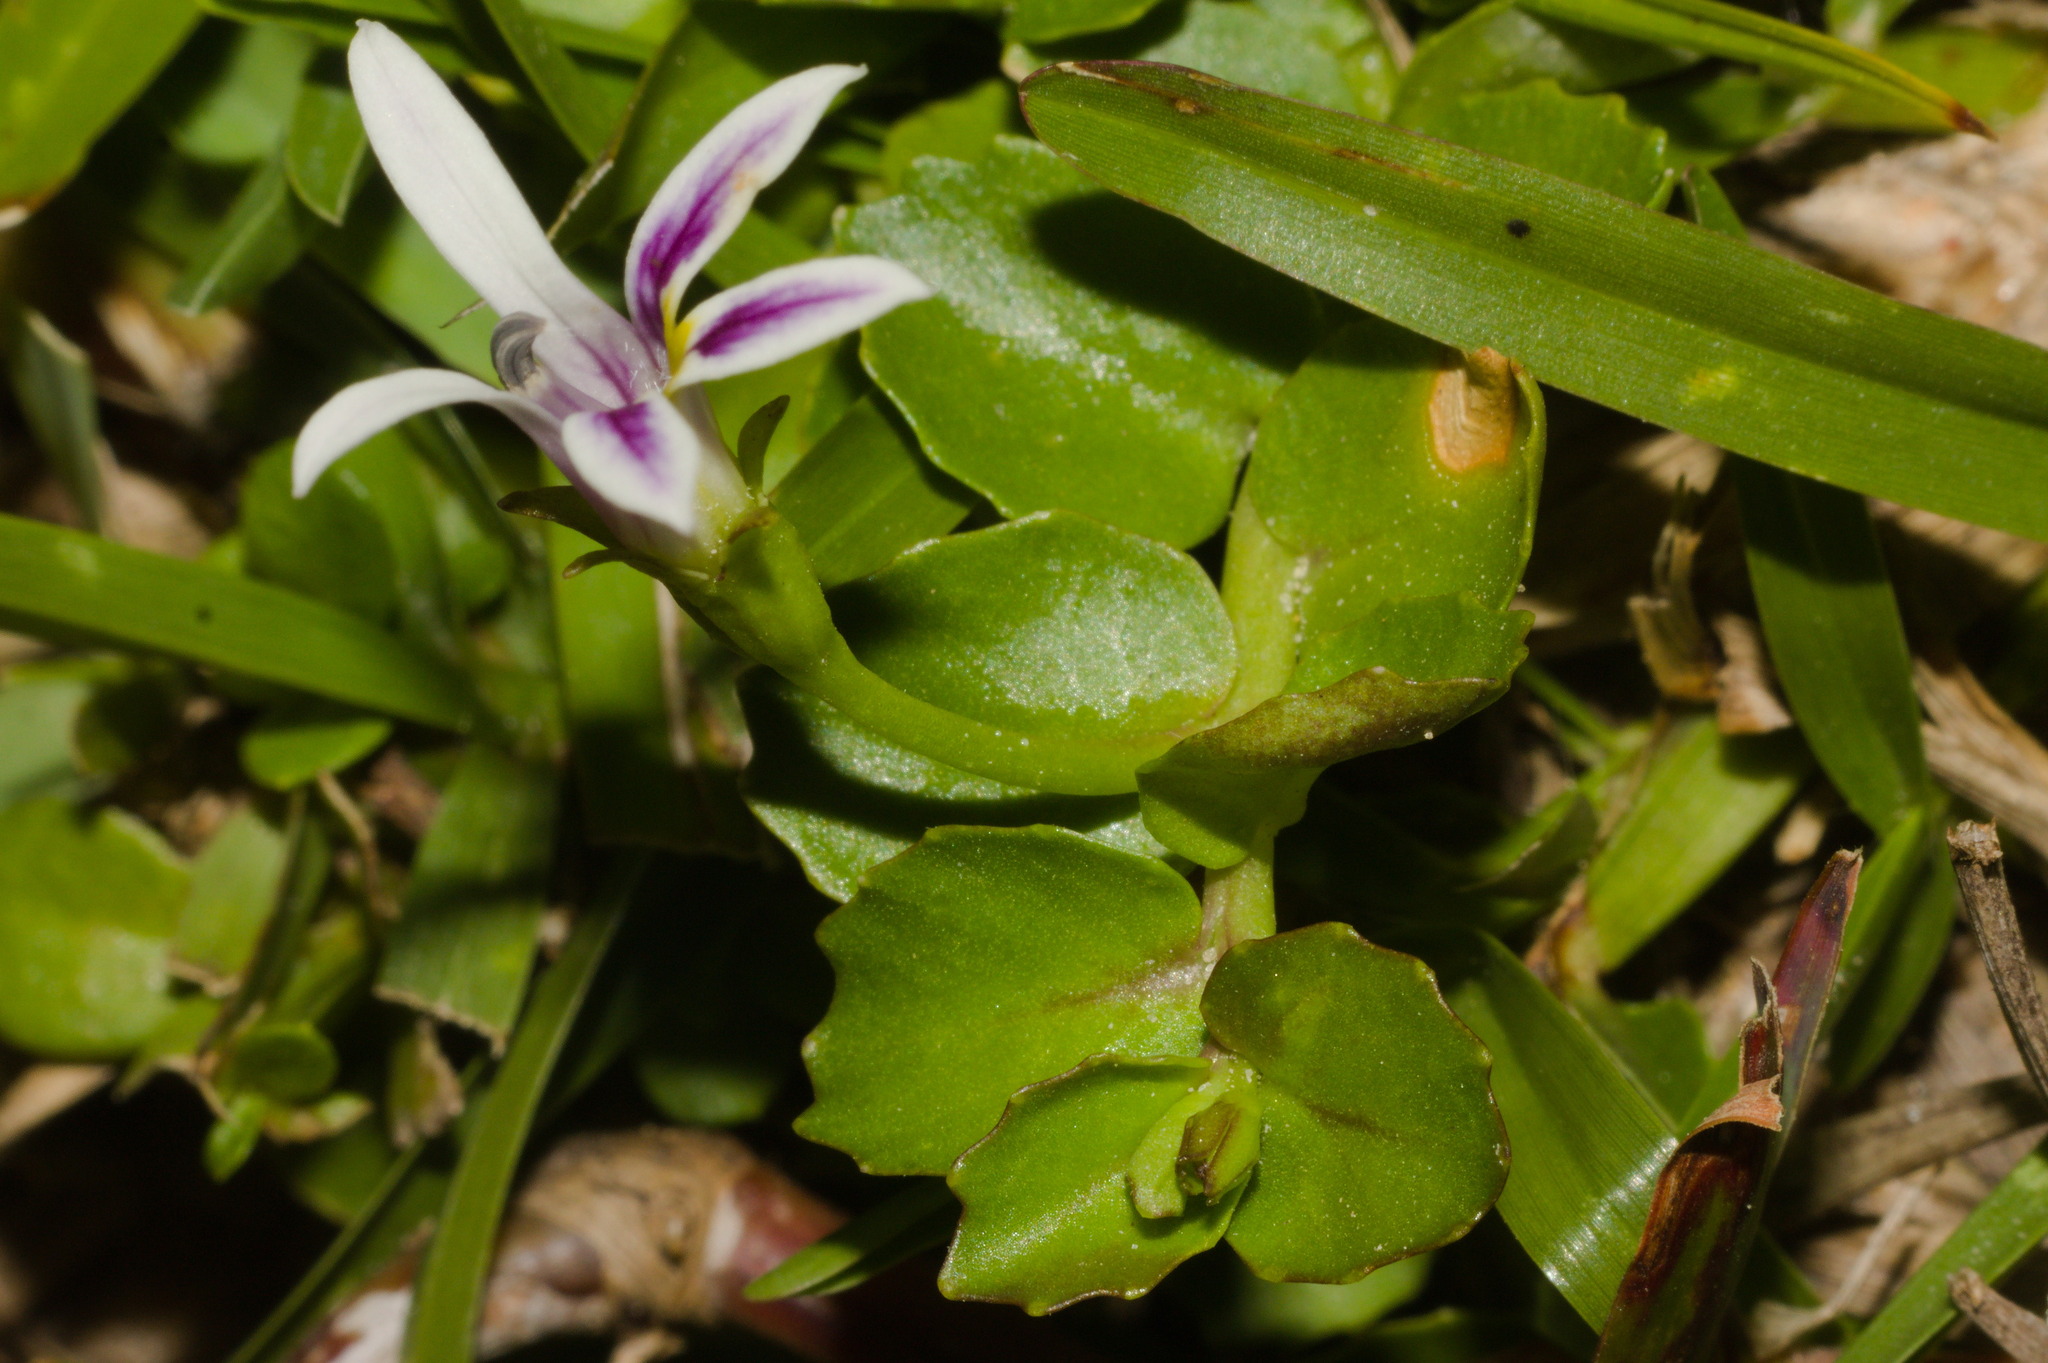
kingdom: Plantae
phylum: Tracheophyta
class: Magnoliopsida
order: Asterales
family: Campanulaceae
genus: Lobelia
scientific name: Lobelia hederacea
